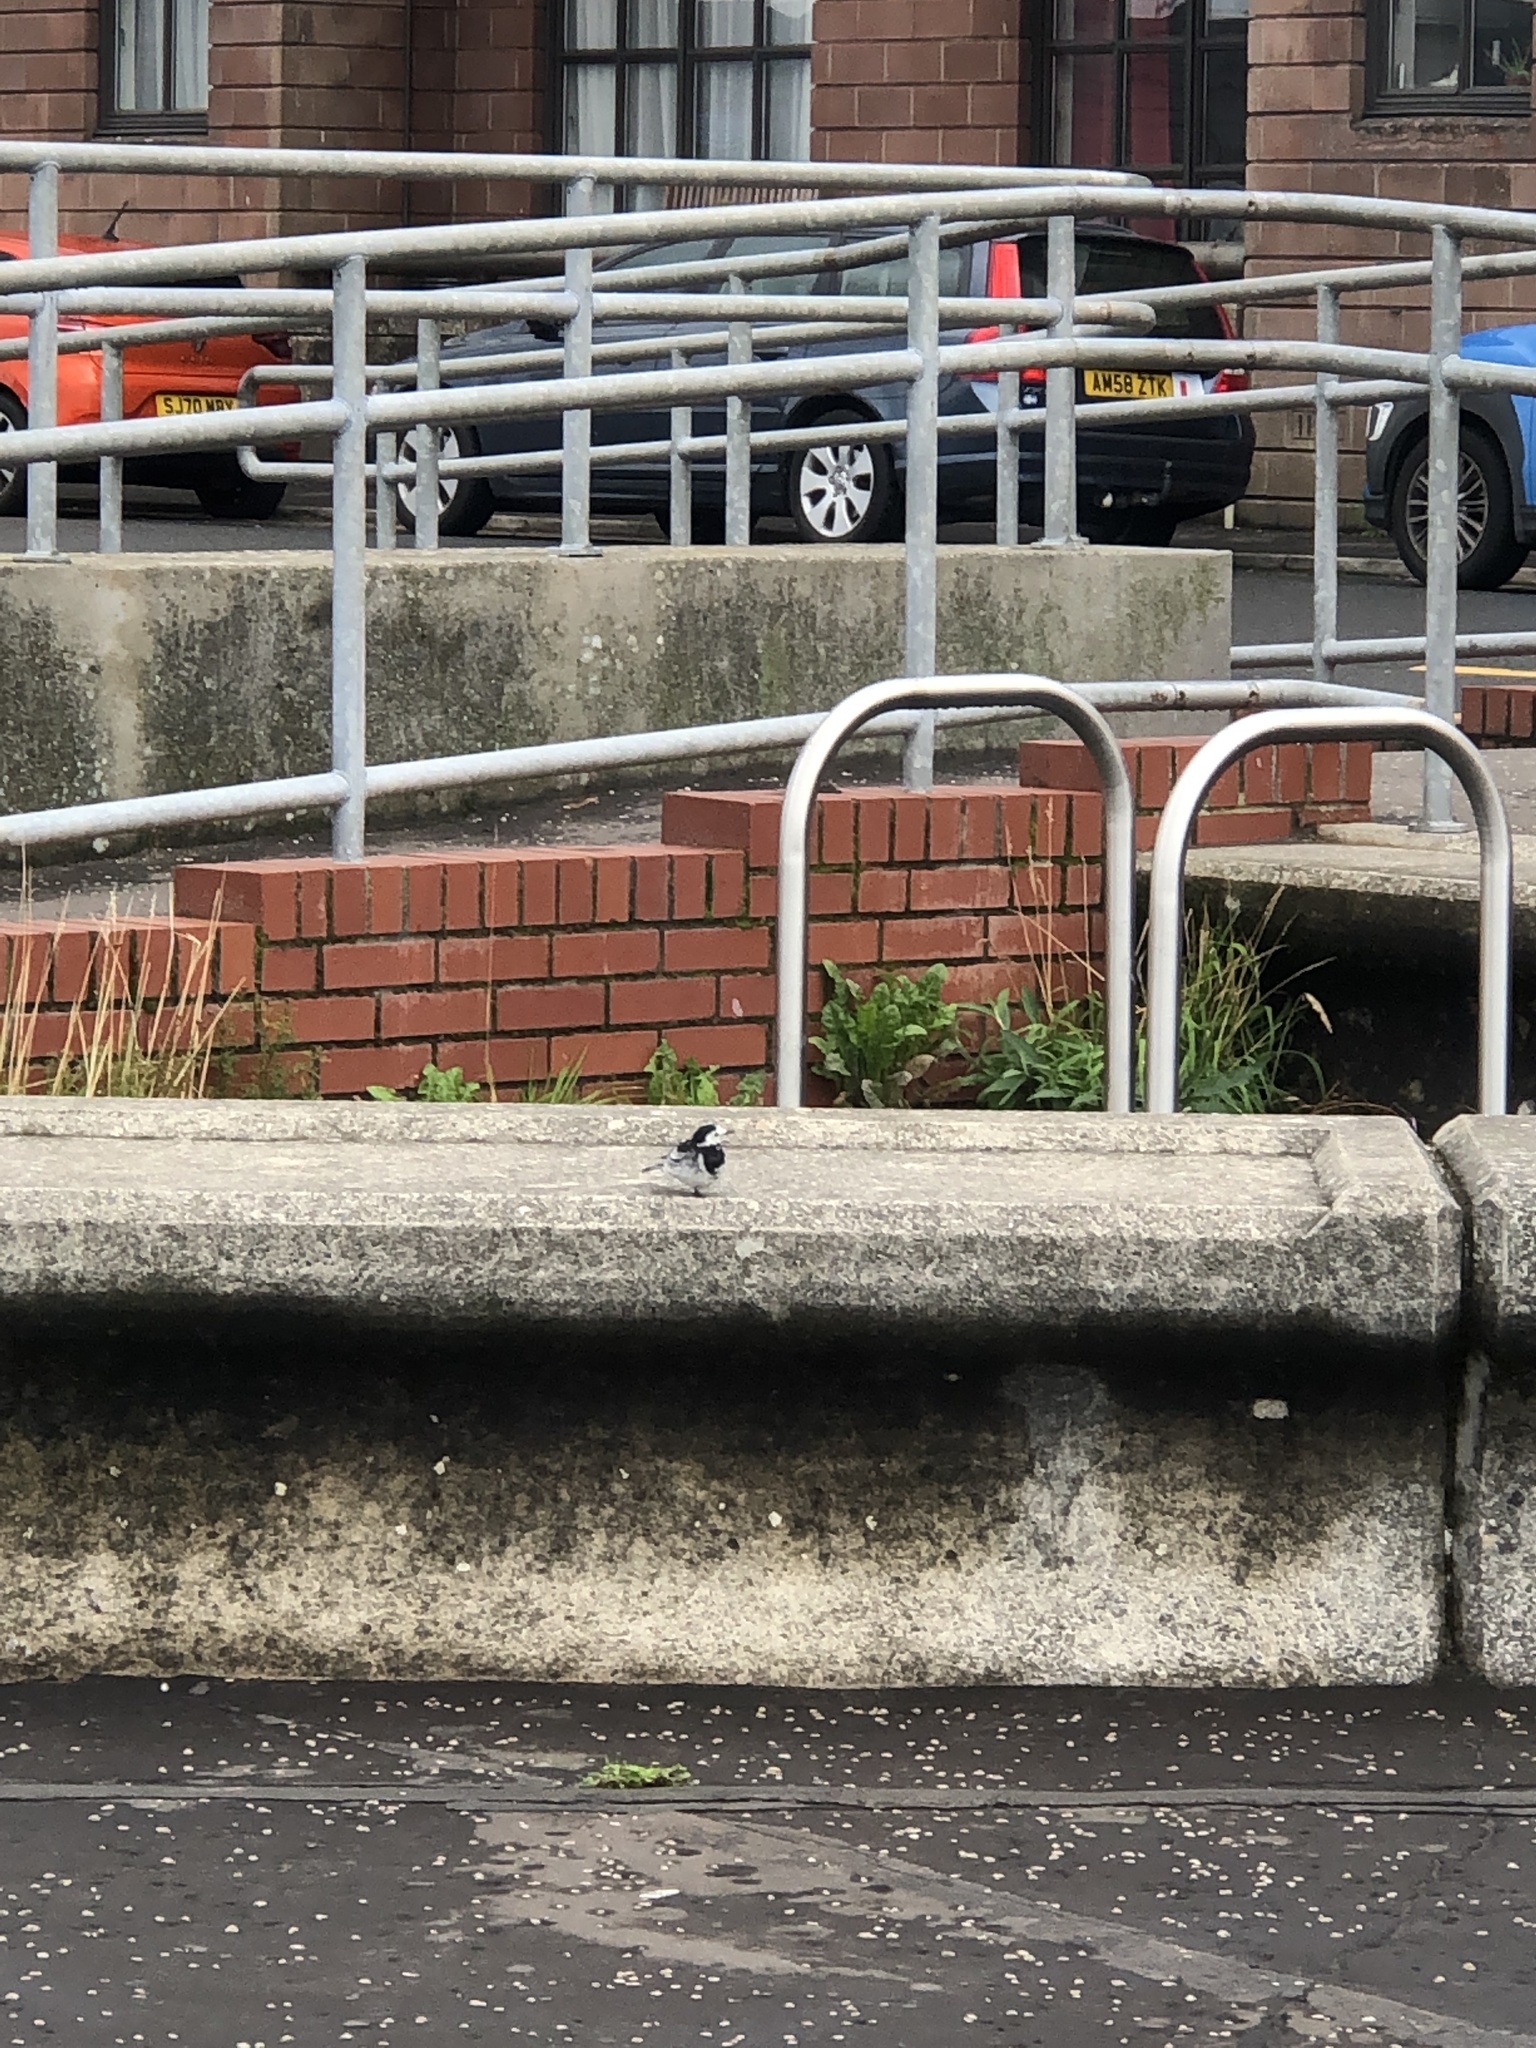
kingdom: Animalia
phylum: Chordata
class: Aves
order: Passeriformes
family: Motacillidae
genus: Motacilla
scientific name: Motacilla alba
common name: White wagtail
